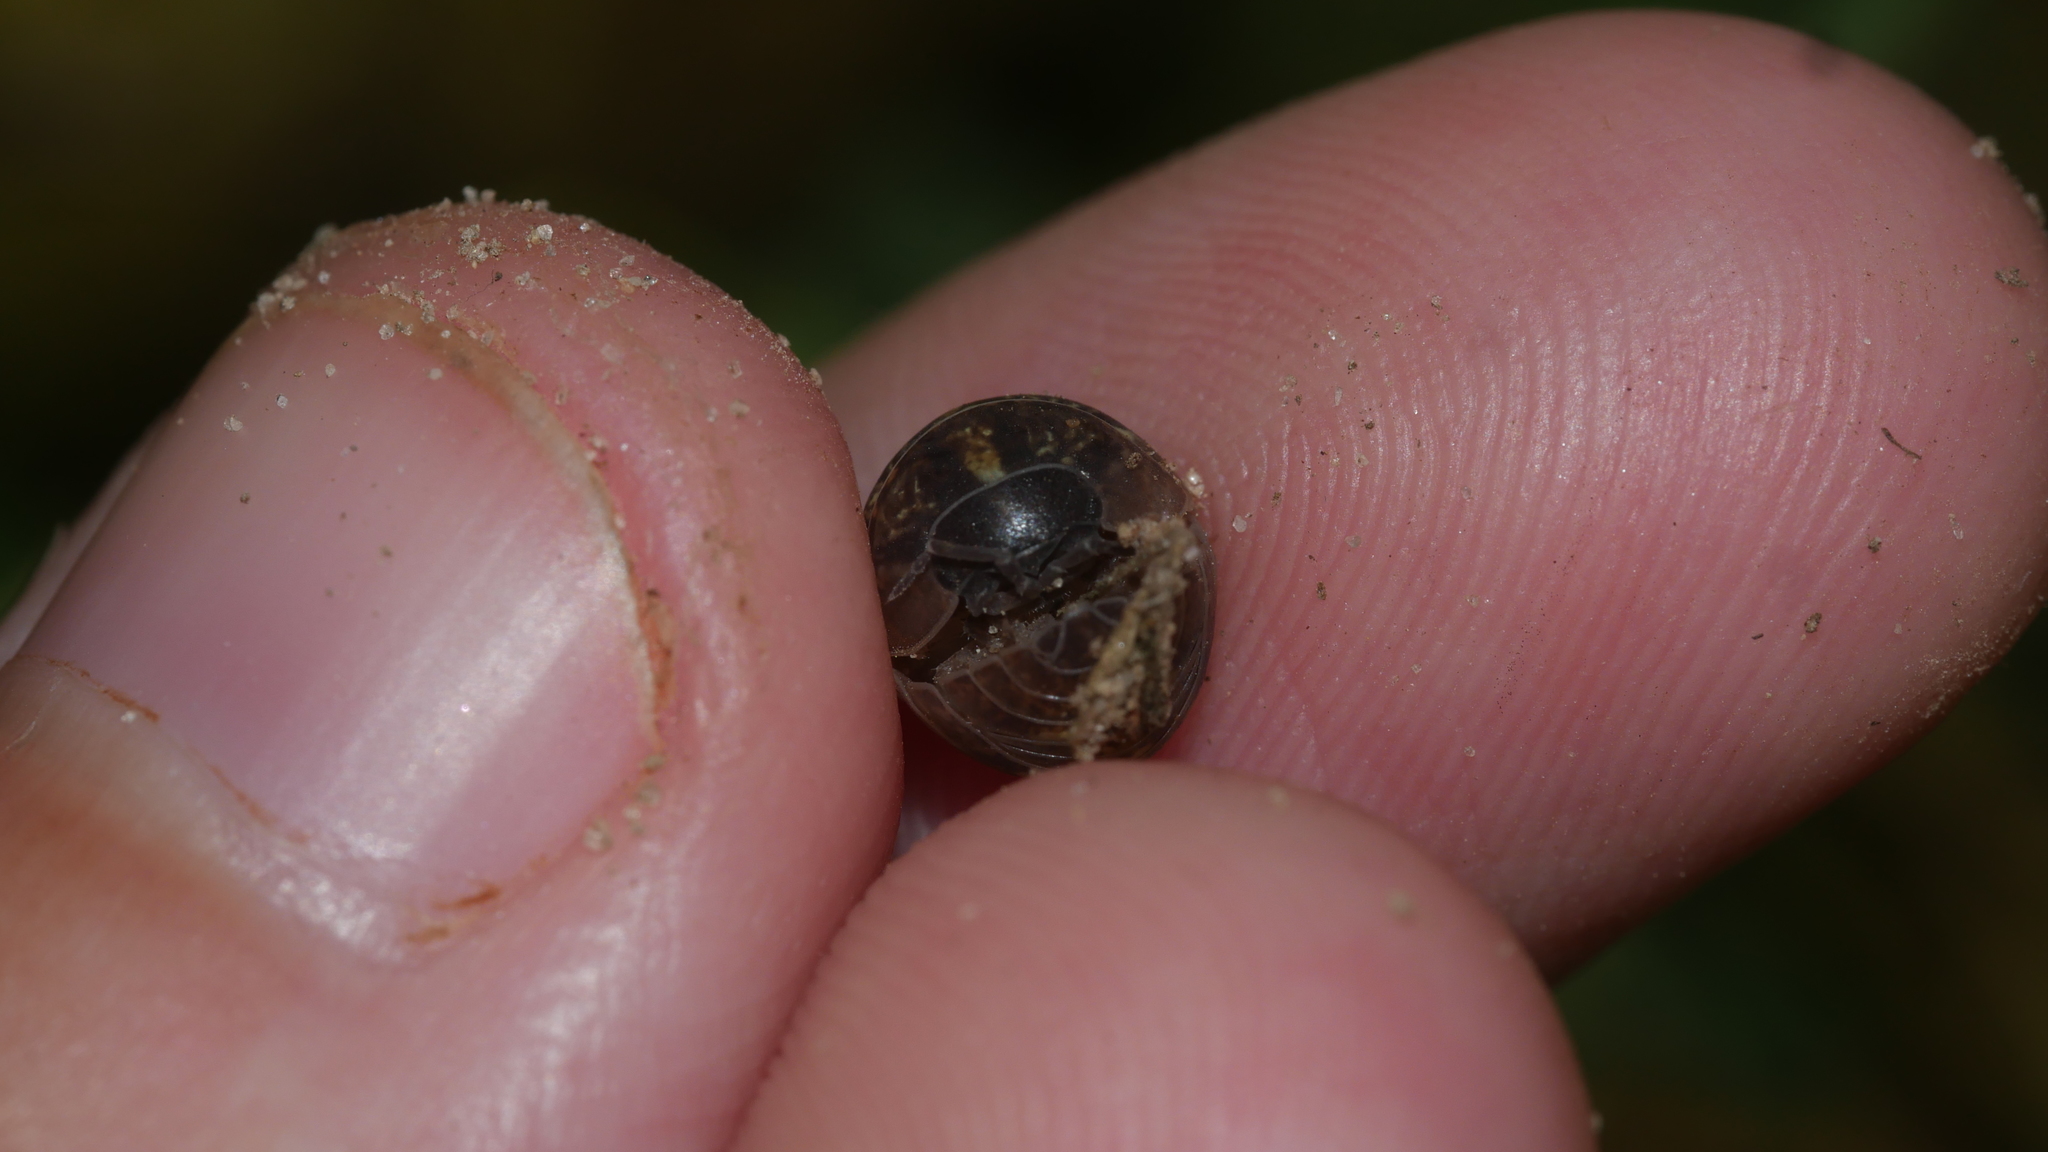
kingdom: Animalia
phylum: Arthropoda
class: Malacostraca
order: Isopoda
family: Armadillidiidae
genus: Armadillidium
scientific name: Armadillidium vulgare
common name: Common pill woodlouse
